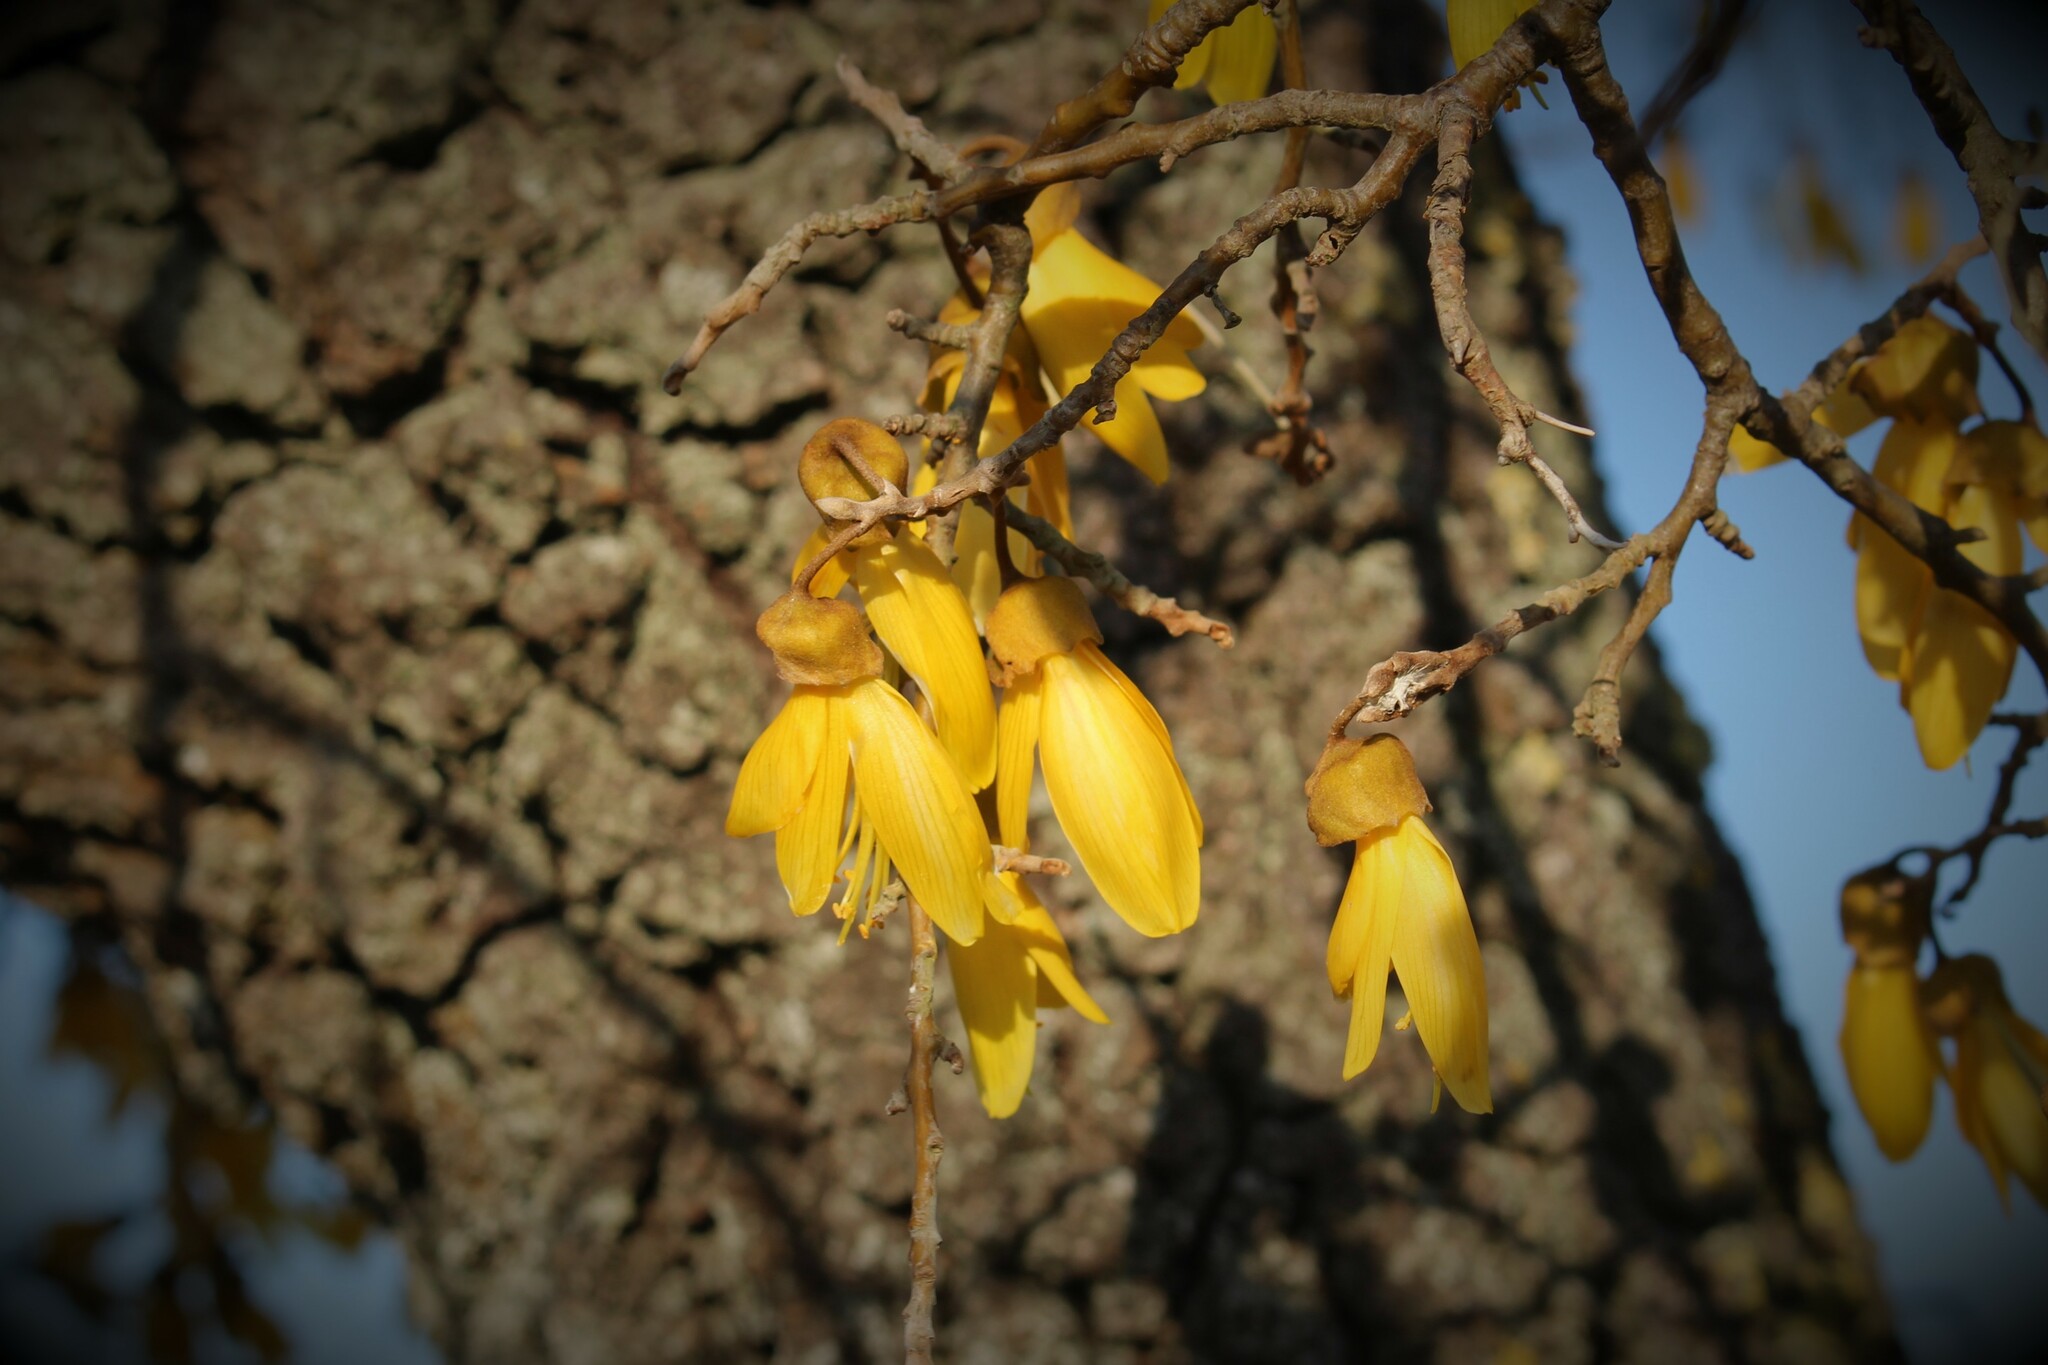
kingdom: Plantae
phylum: Tracheophyta
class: Magnoliopsida
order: Fabales
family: Fabaceae
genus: Sophora
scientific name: Sophora microphylla
